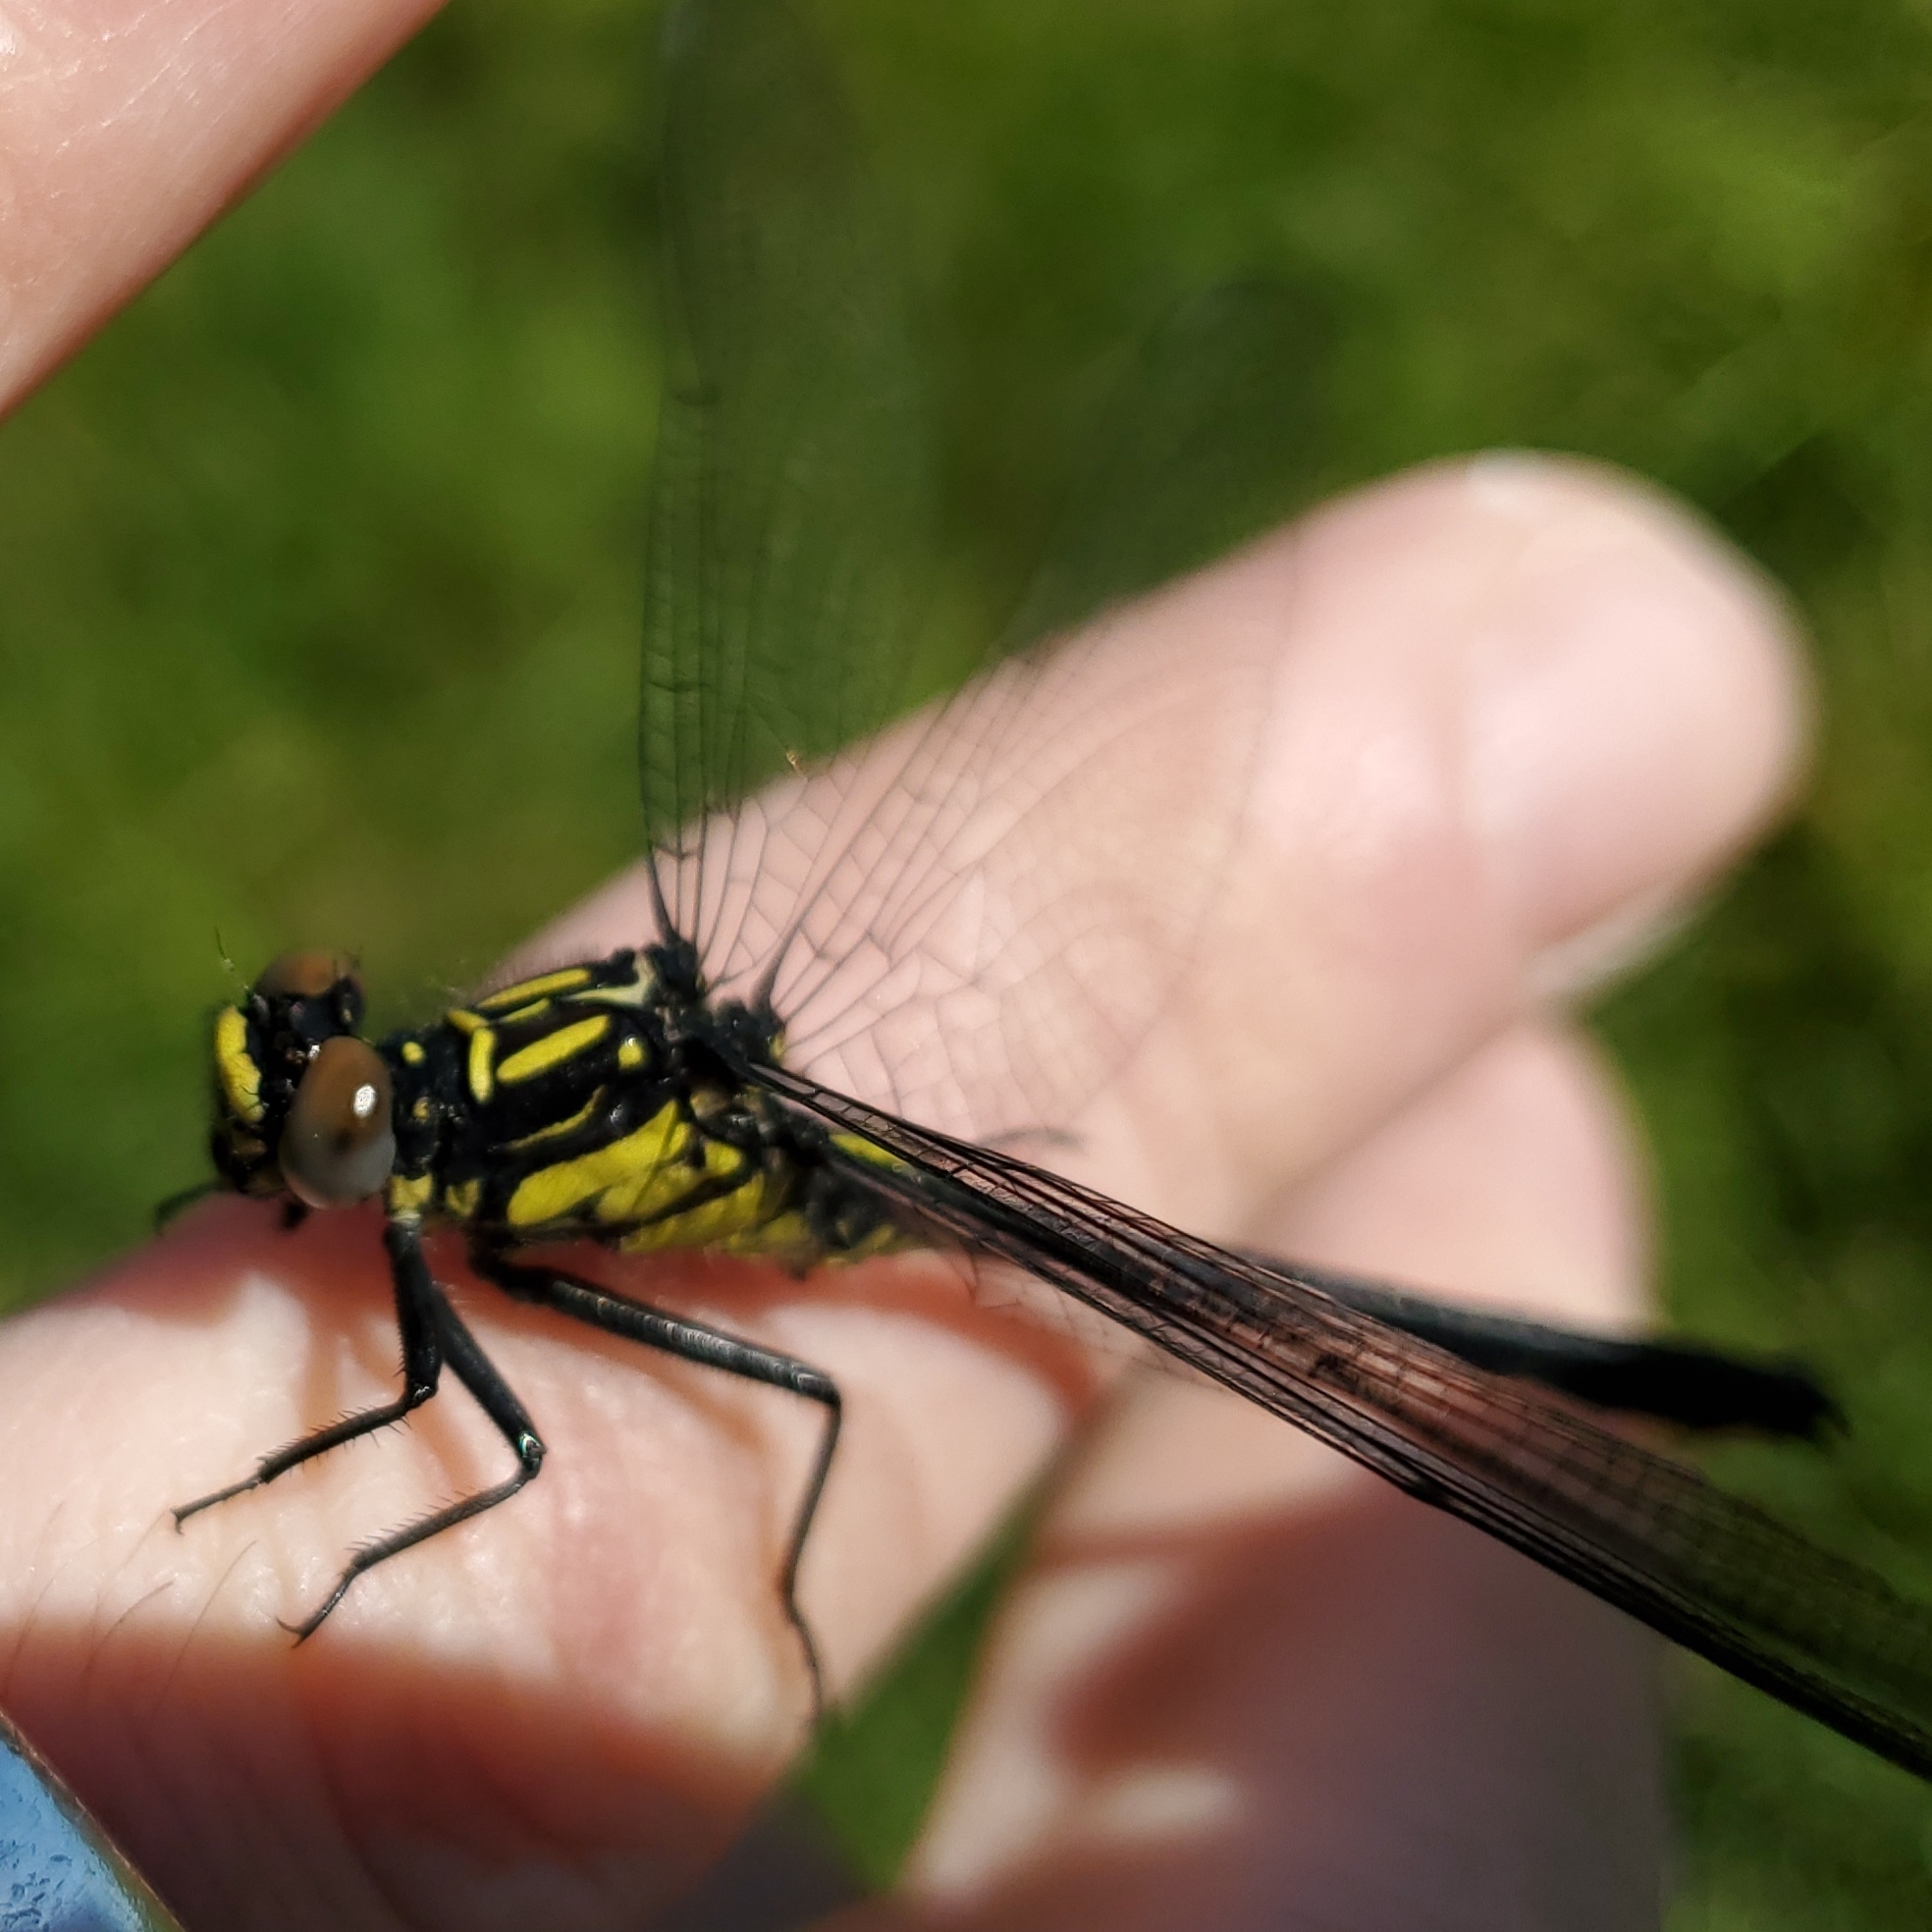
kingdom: Animalia
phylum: Arthropoda
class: Insecta
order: Odonata
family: Gomphidae
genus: Stenogomphurus
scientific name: Stenogomphurus rogersi
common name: Sable clubtail
